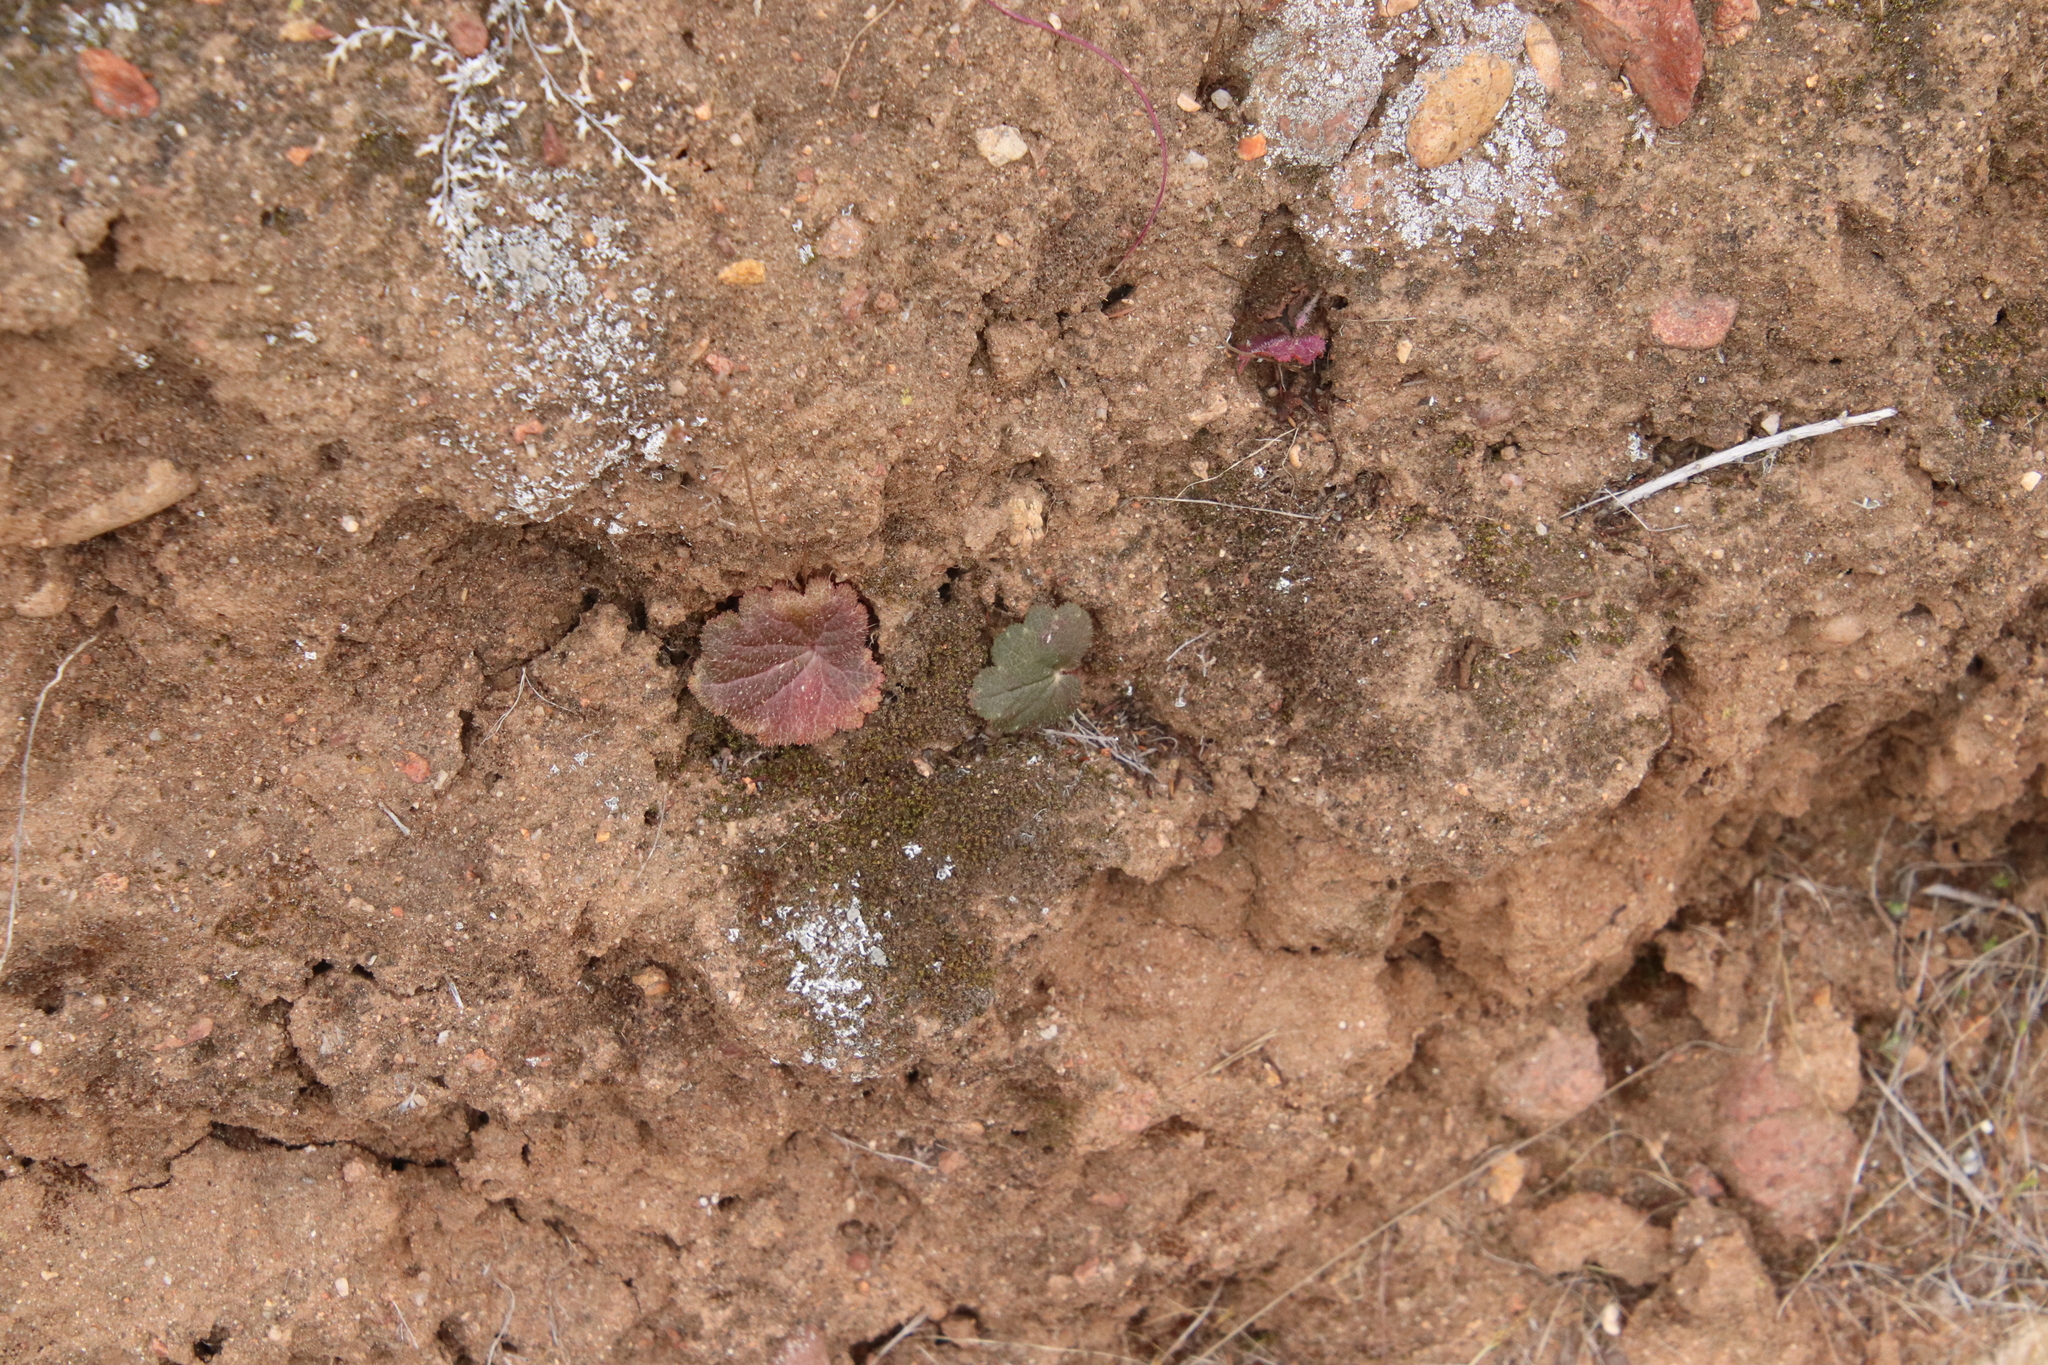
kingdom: Plantae
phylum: Tracheophyta
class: Magnoliopsida
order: Saxifragales
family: Saxifragaceae
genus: Jepsonia
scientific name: Jepsonia parryi
